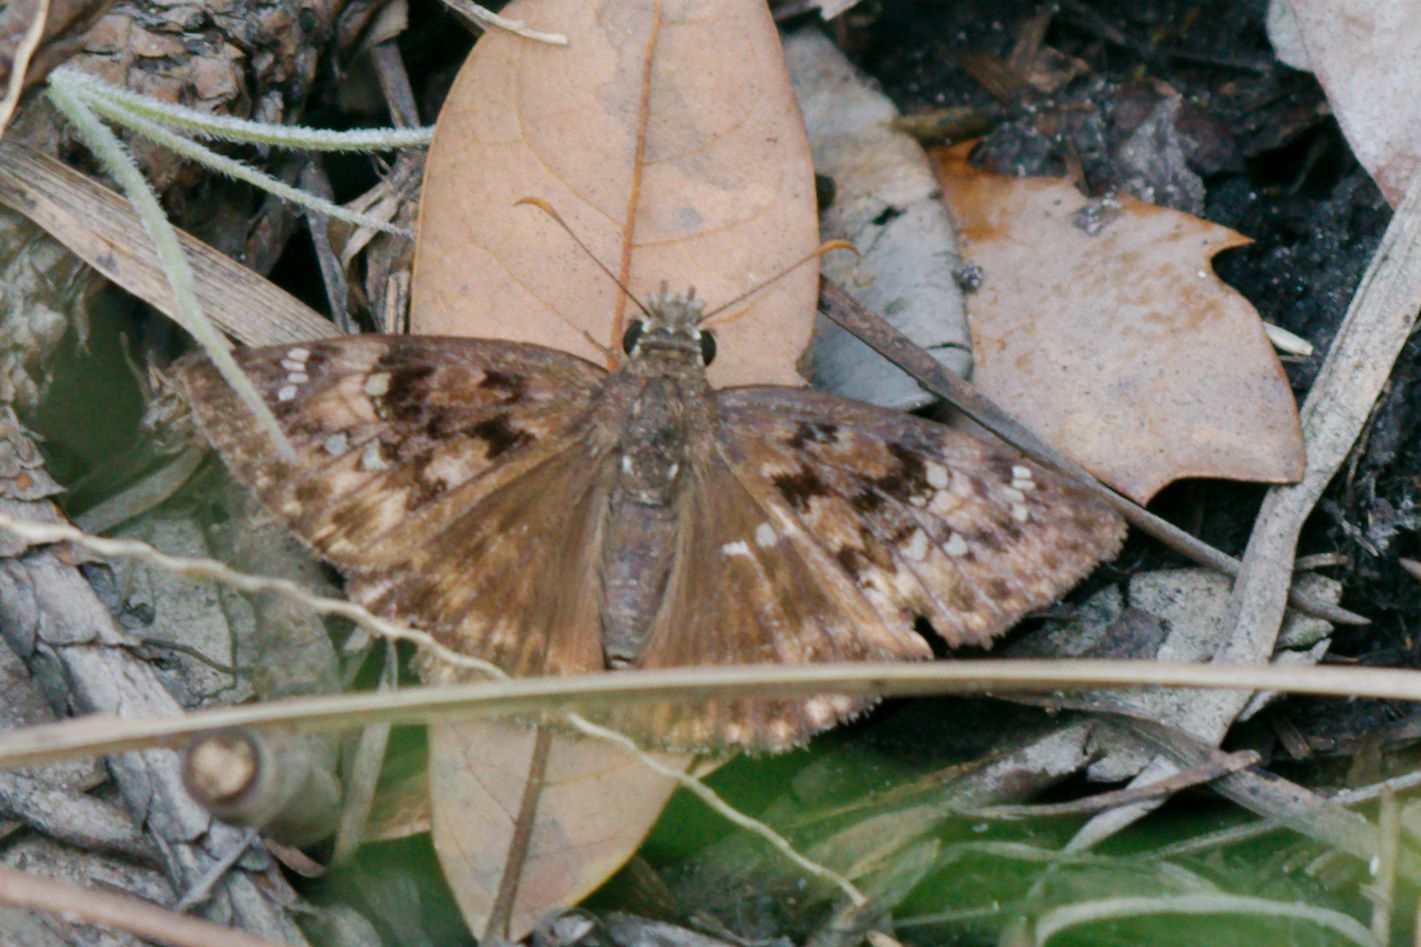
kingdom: Animalia
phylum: Arthropoda
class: Insecta
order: Lepidoptera
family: Hesperiidae
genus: Erynnis
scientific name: Erynnis horatius
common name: Horace's duskywing
